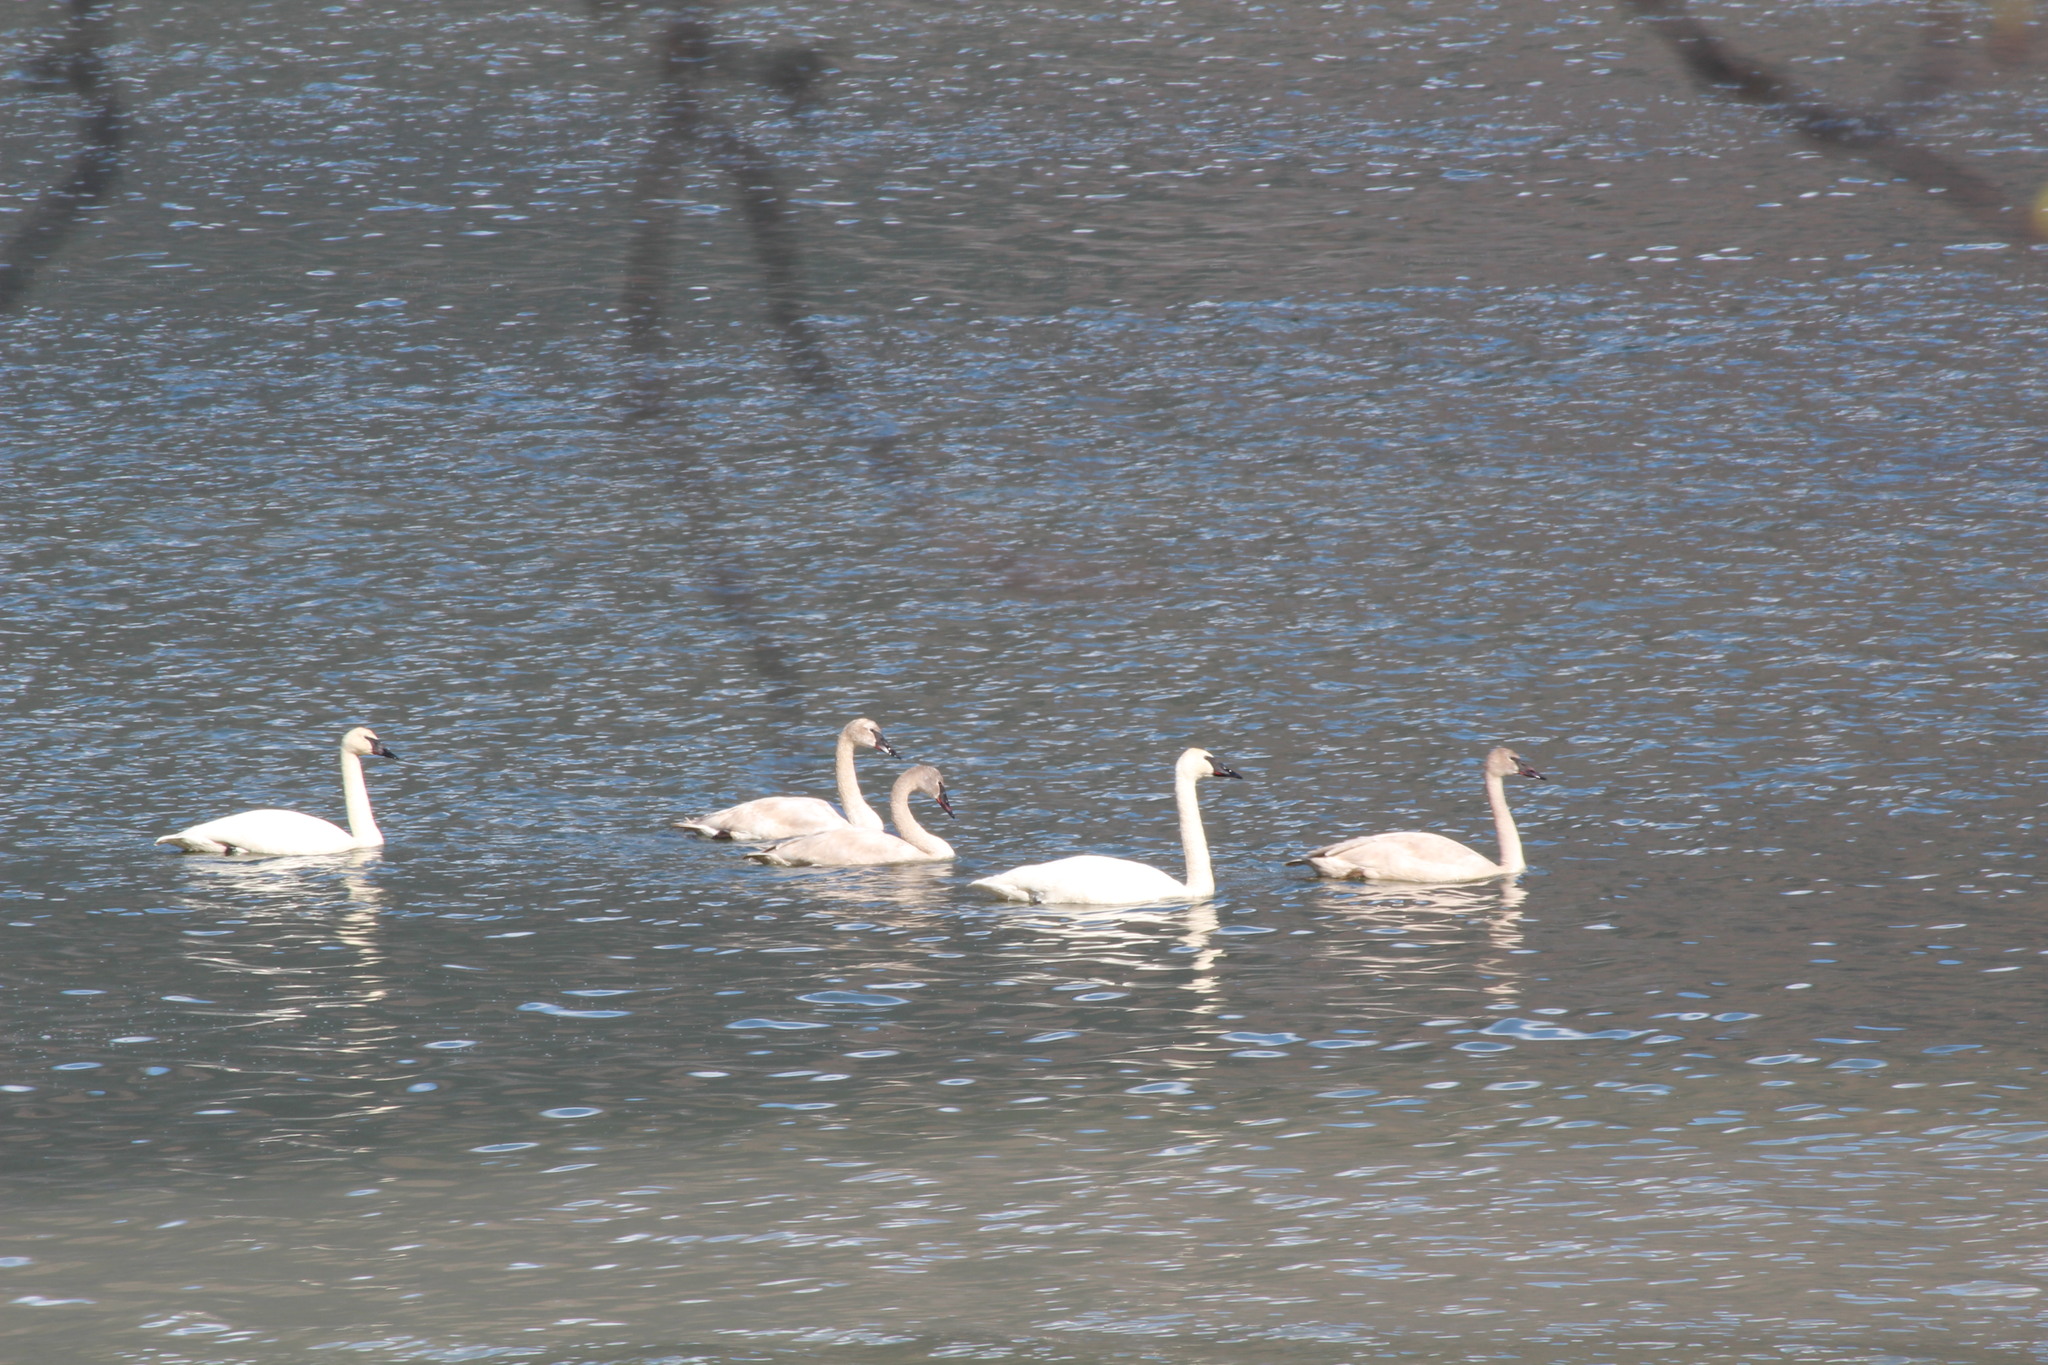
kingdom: Animalia
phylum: Chordata
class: Aves
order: Anseriformes
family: Anatidae
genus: Cygnus
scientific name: Cygnus buccinator
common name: Trumpeter swan
